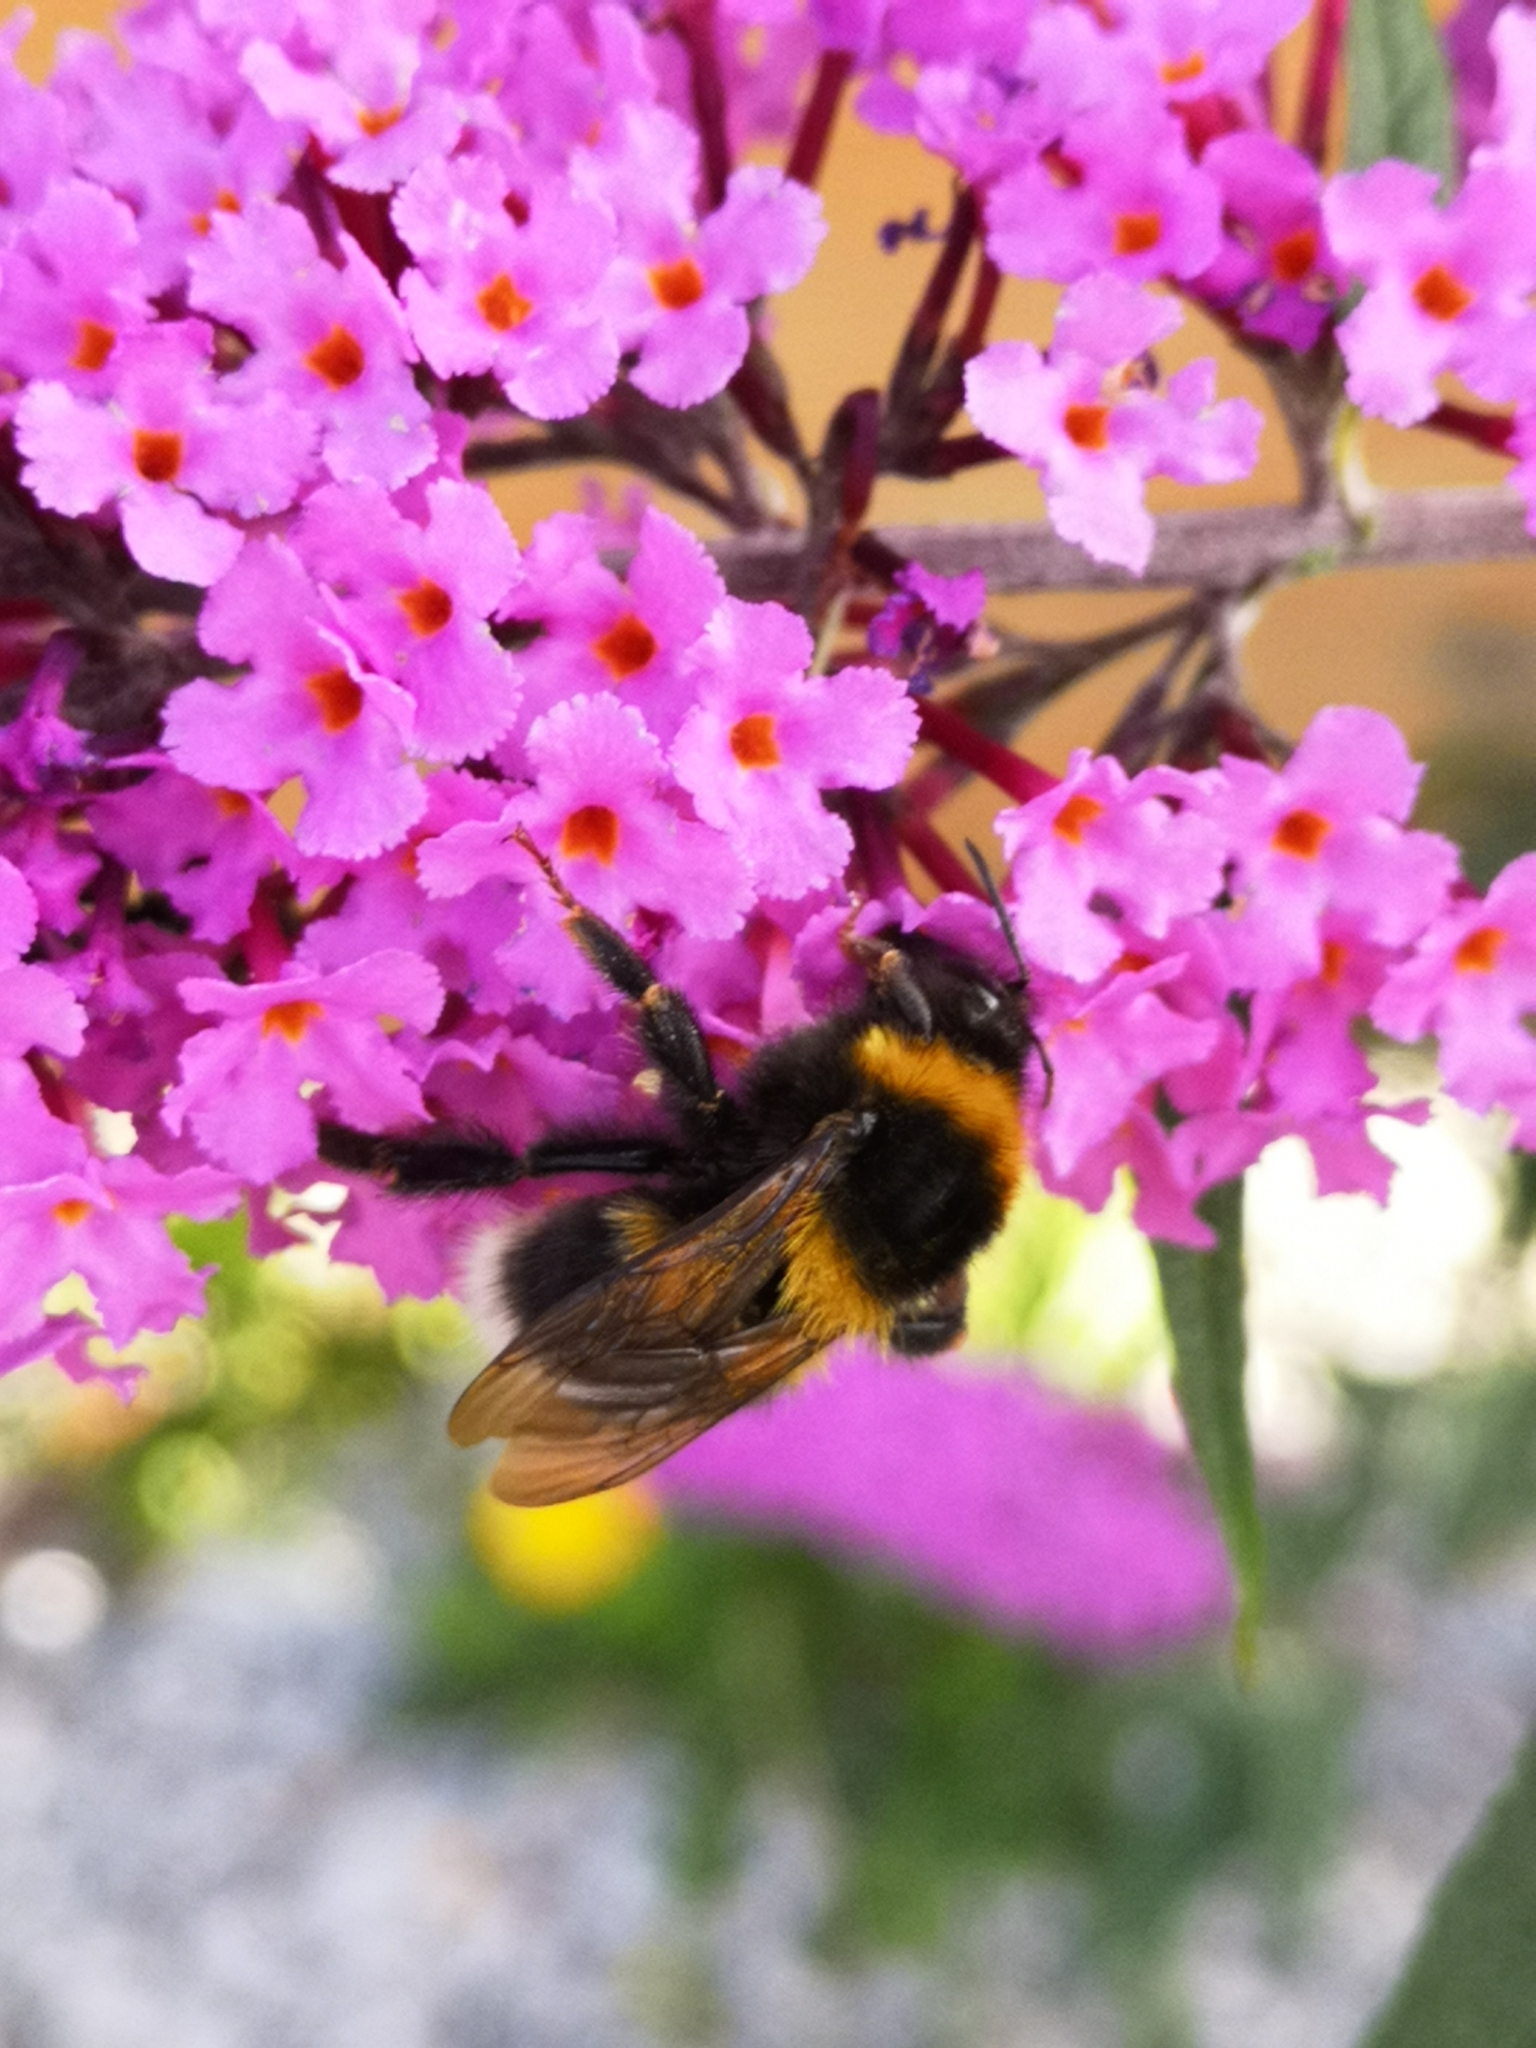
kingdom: Animalia
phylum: Arthropoda
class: Insecta
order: Hymenoptera
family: Apidae
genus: Bombus
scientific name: Bombus hortorum
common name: Garden bumblebee
